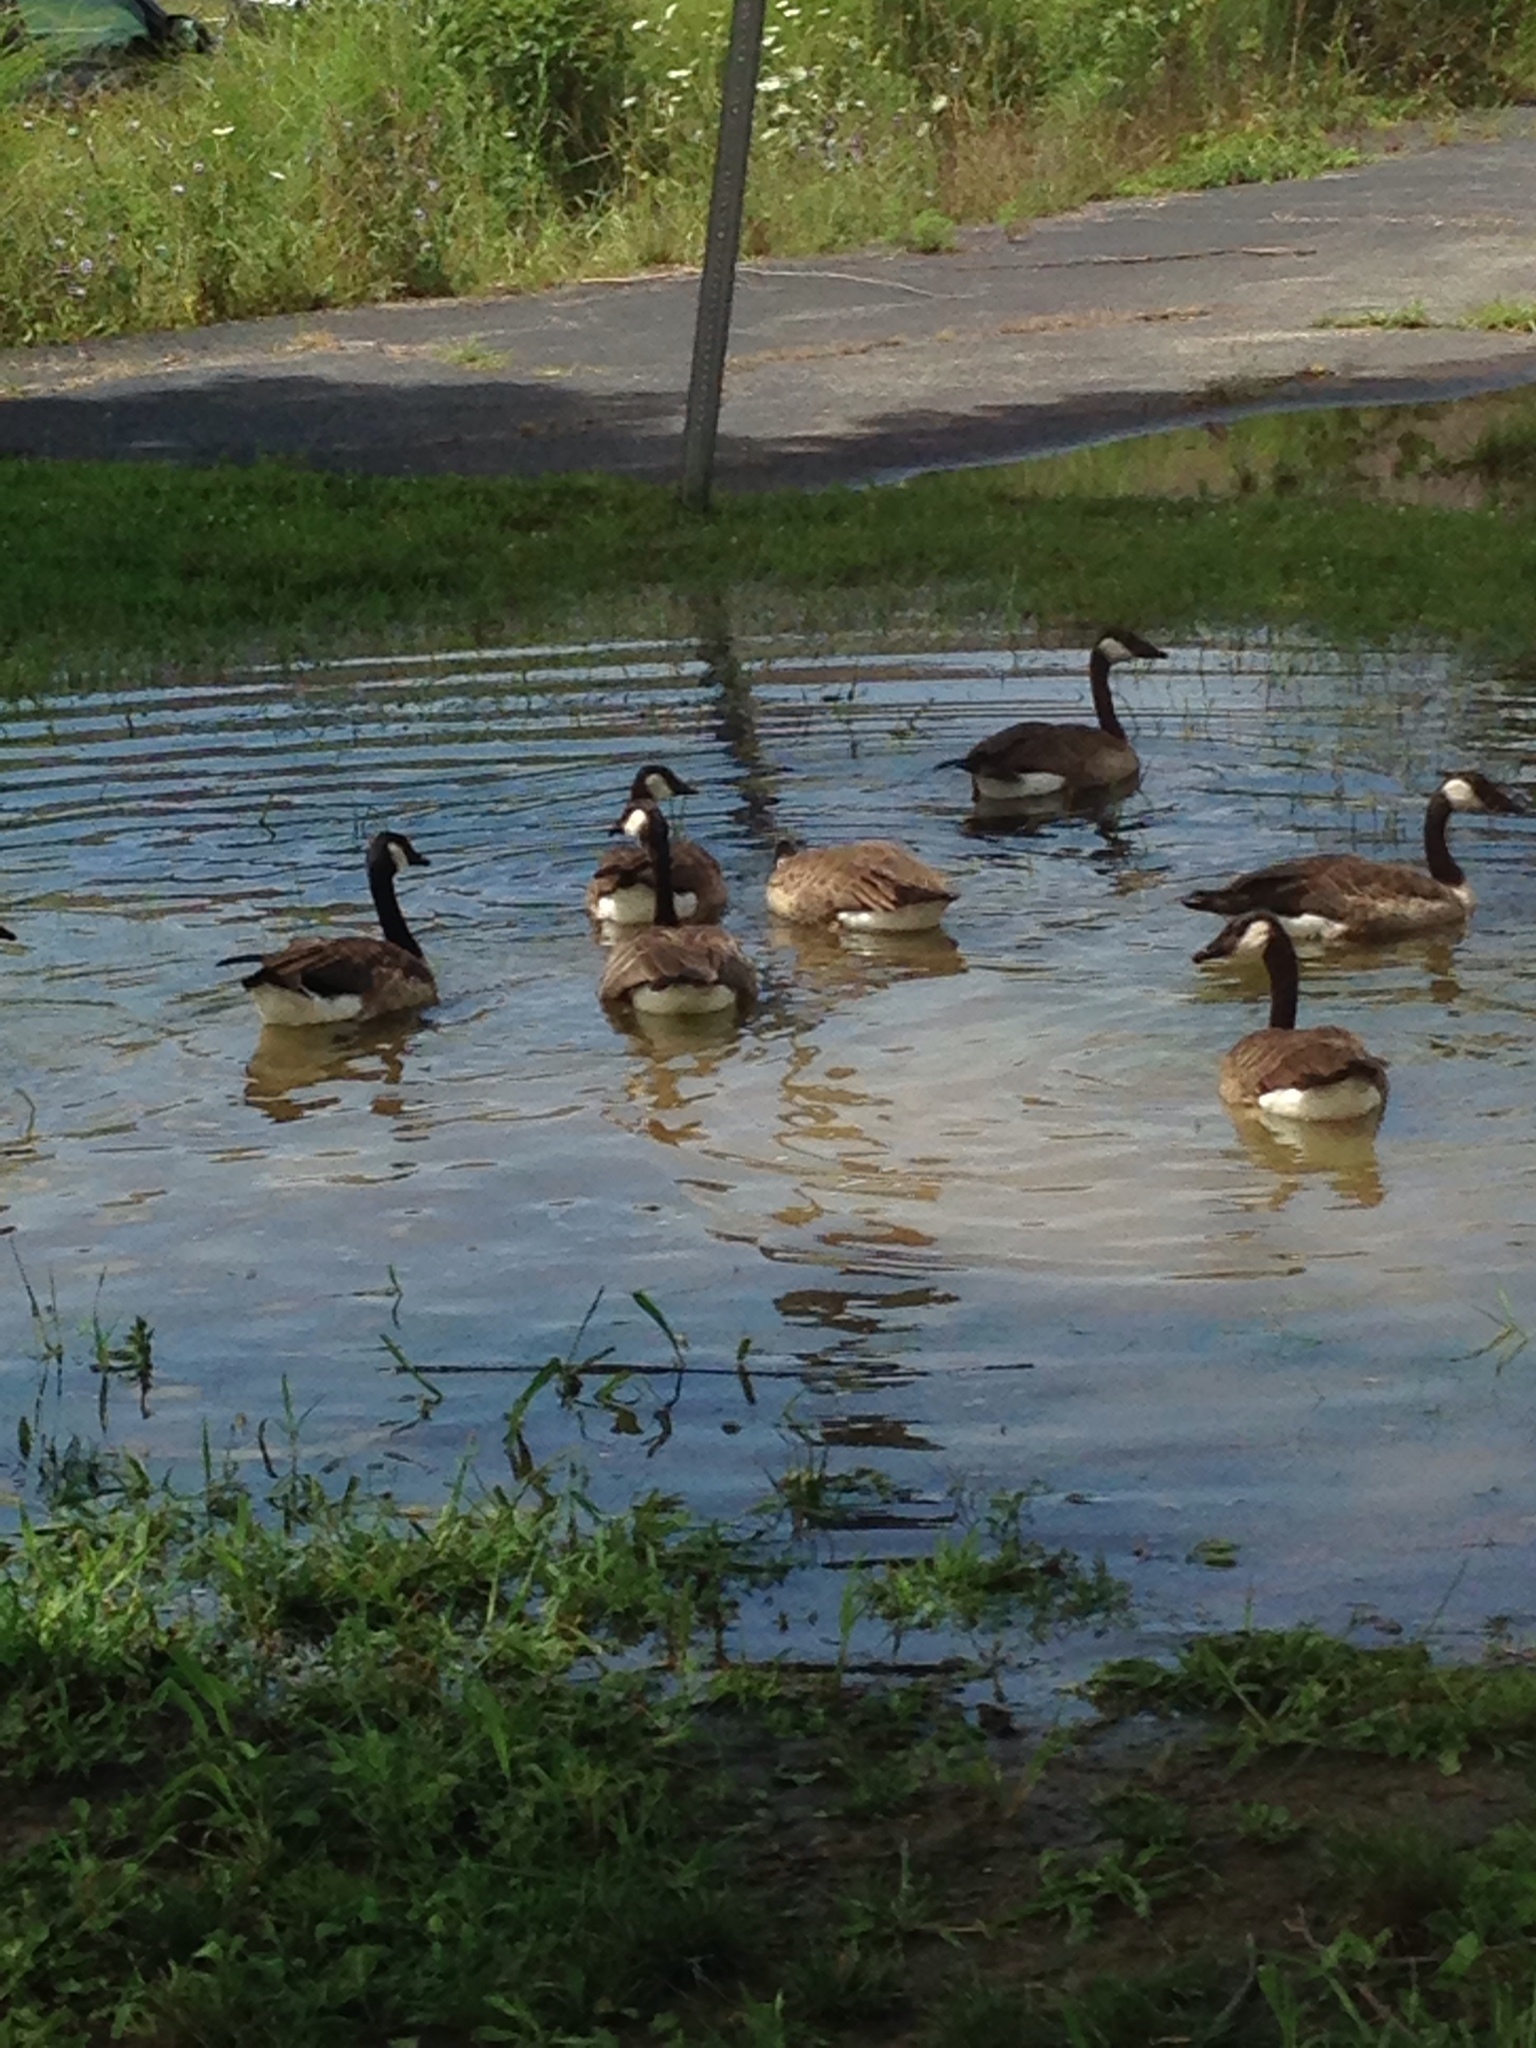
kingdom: Animalia
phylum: Chordata
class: Aves
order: Anseriformes
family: Anatidae
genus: Branta
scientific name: Branta canadensis
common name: Canada goose
